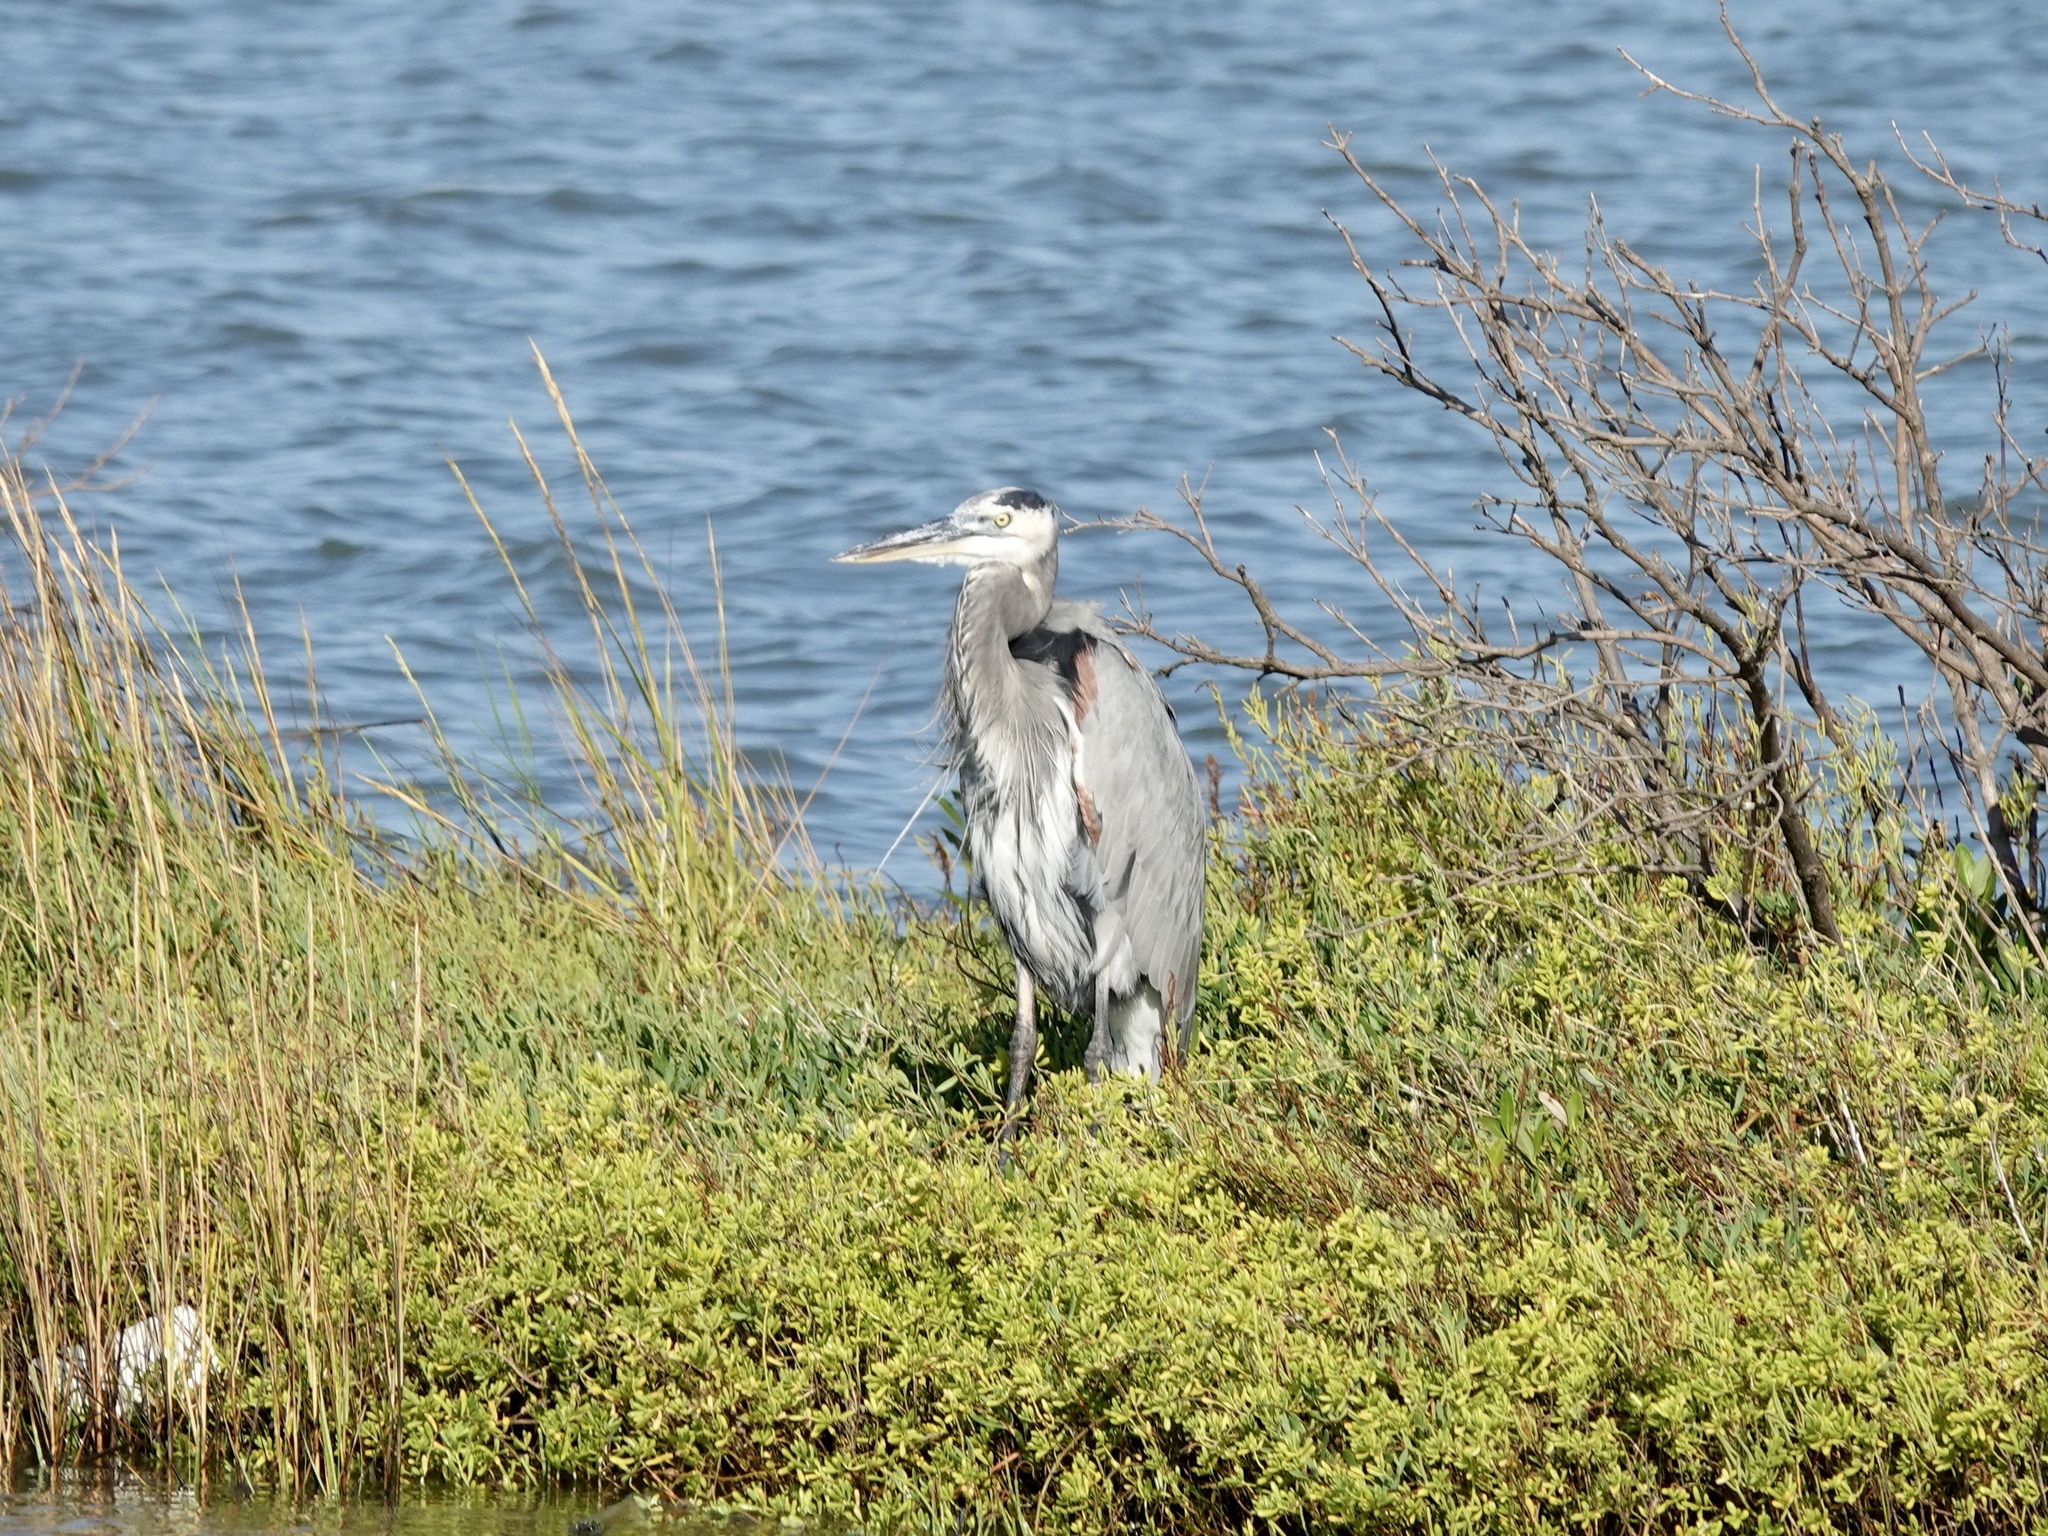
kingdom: Animalia
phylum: Chordata
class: Aves
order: Pelecaniformes
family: Ardeidae
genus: Ardea
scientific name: Ardea herodias
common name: Great blue heron
